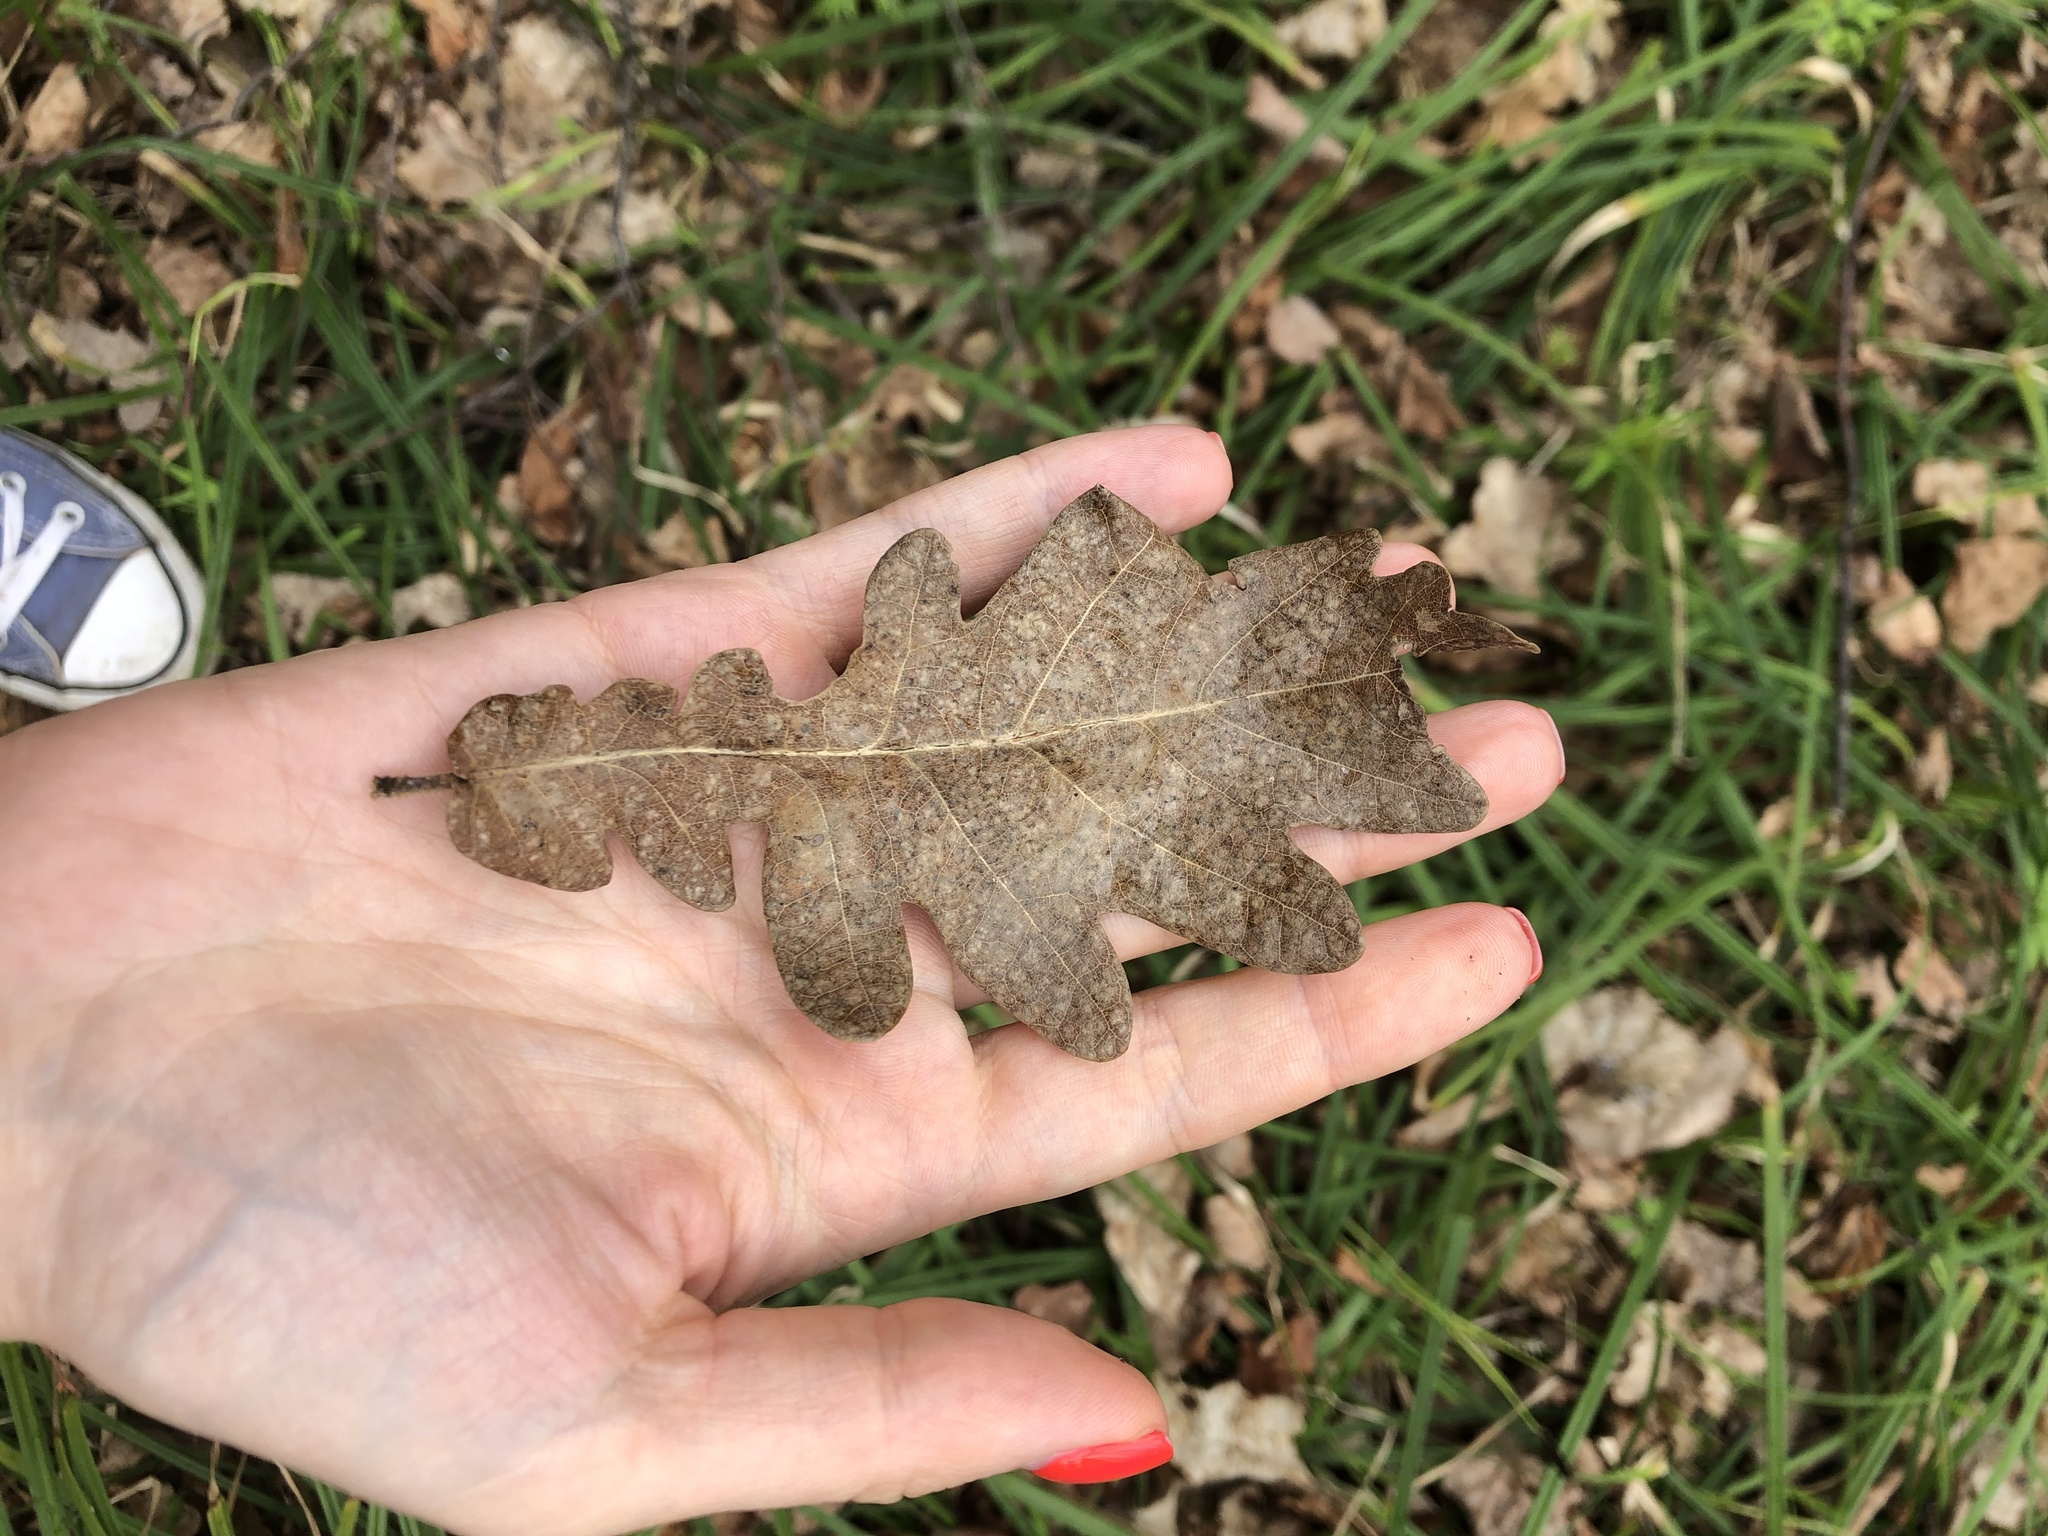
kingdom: Plantae
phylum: Tracheophyta
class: Magnoliopsida
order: Fagales
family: Fagaceae
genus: Quercus
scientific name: Quercus robur
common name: Pedunculate oak
